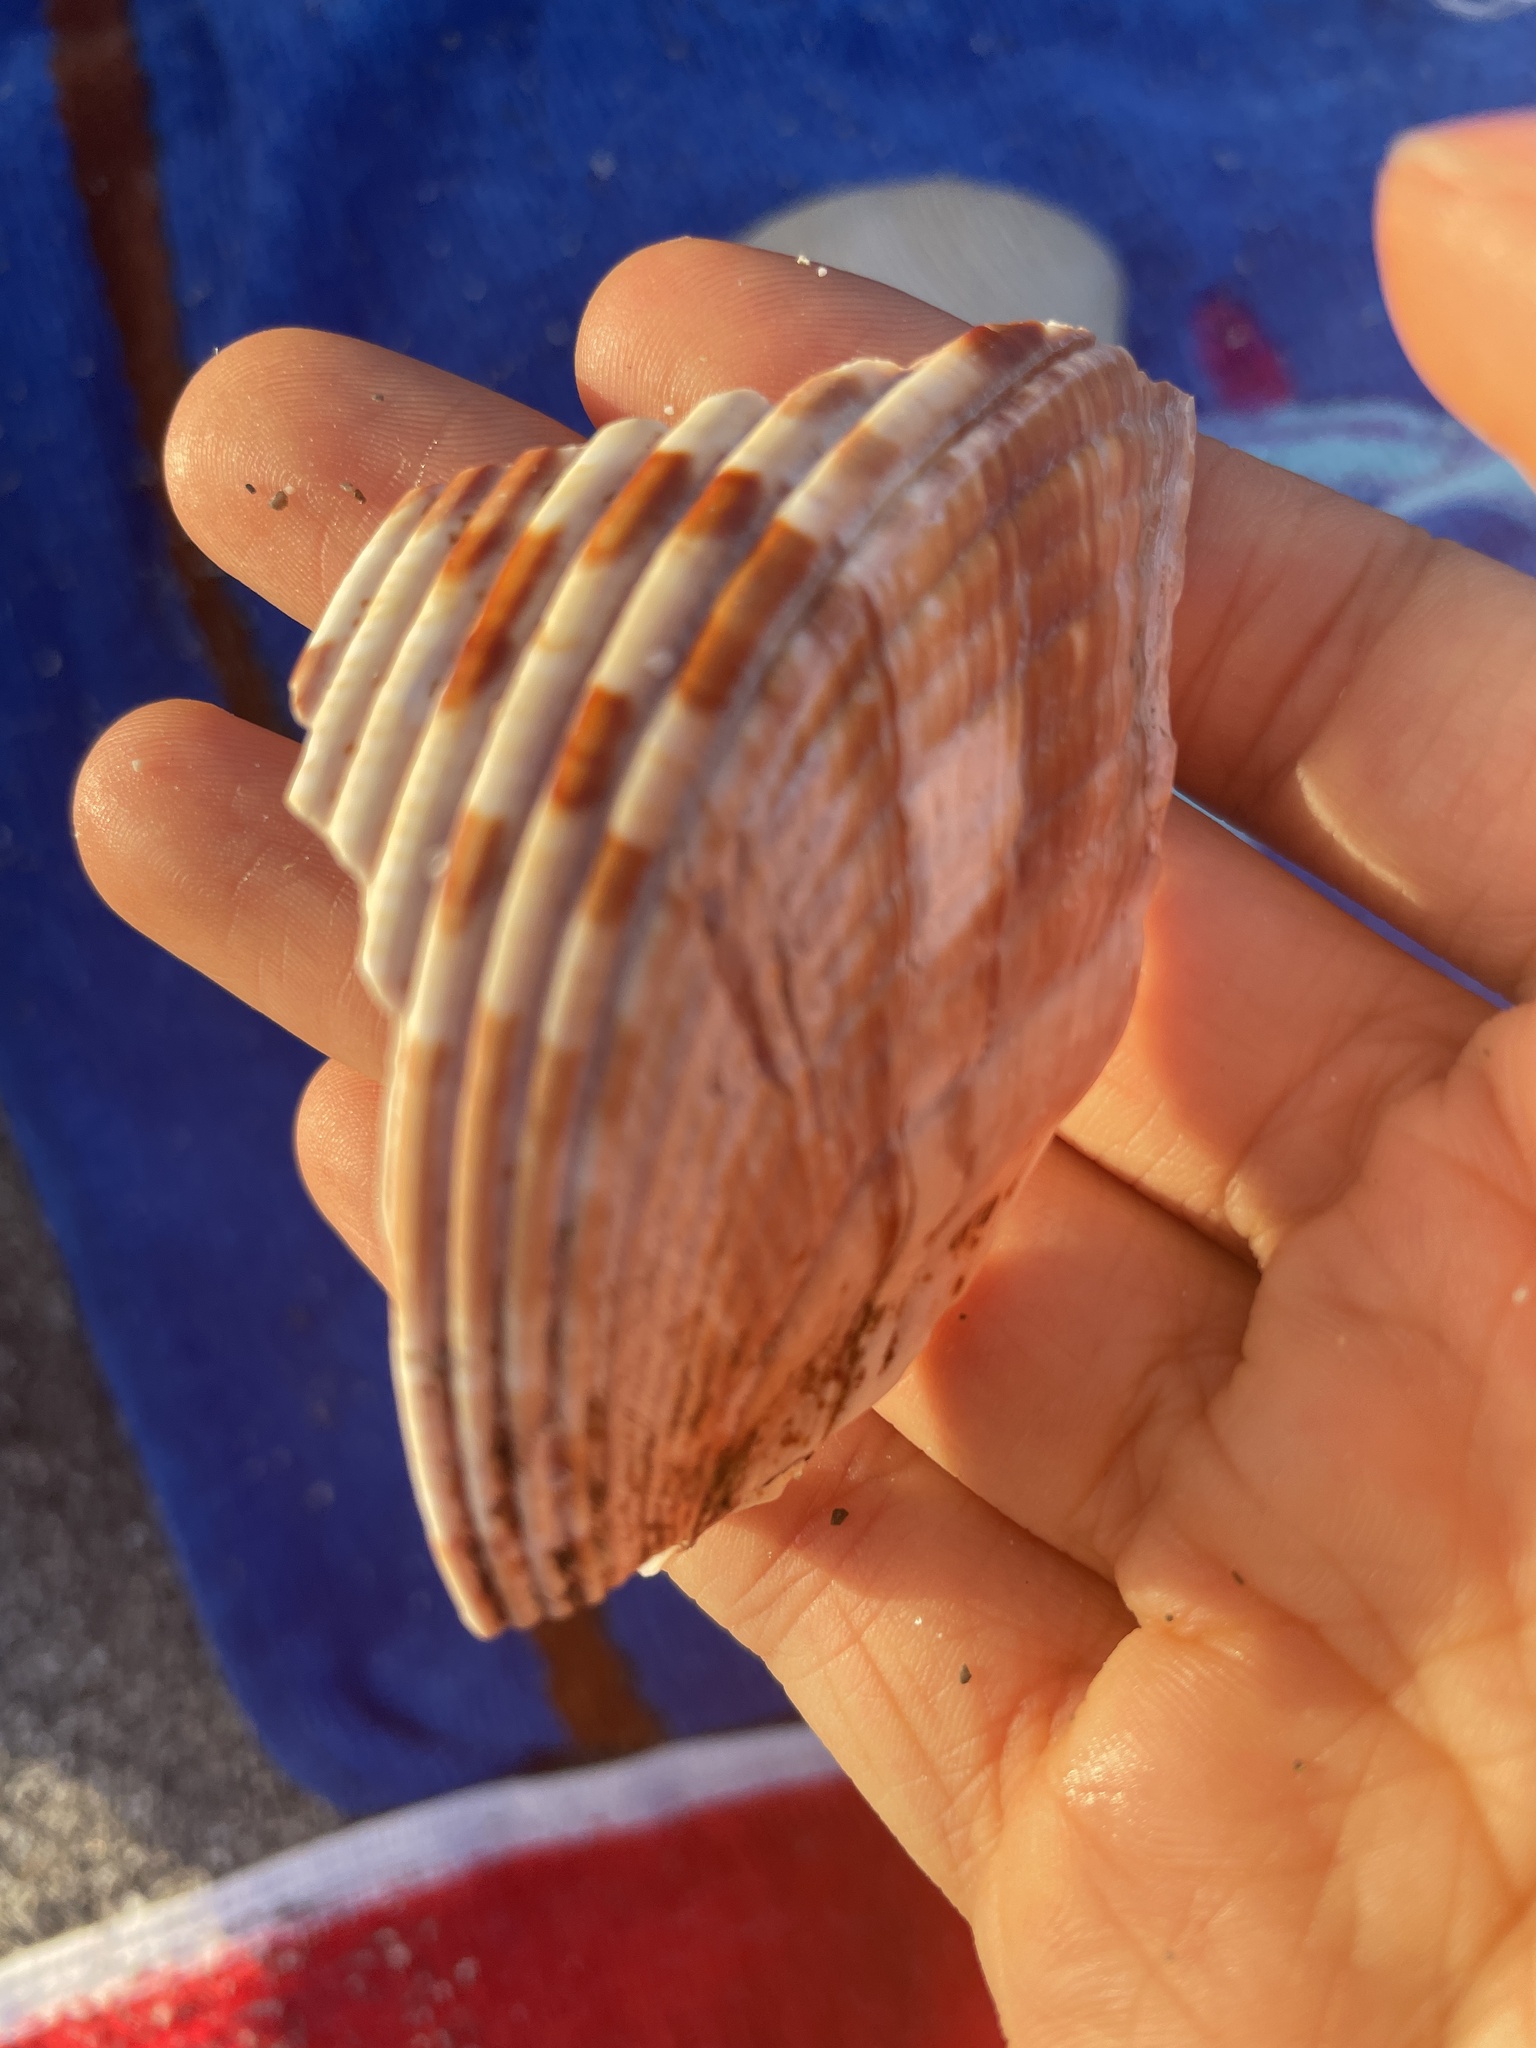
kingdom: Animalia
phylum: Mollusca
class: Bivalvia
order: Cardiida
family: Cardiidae
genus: Dinocardium
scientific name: Dinocardium robustum
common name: Atlantic giant cockle
